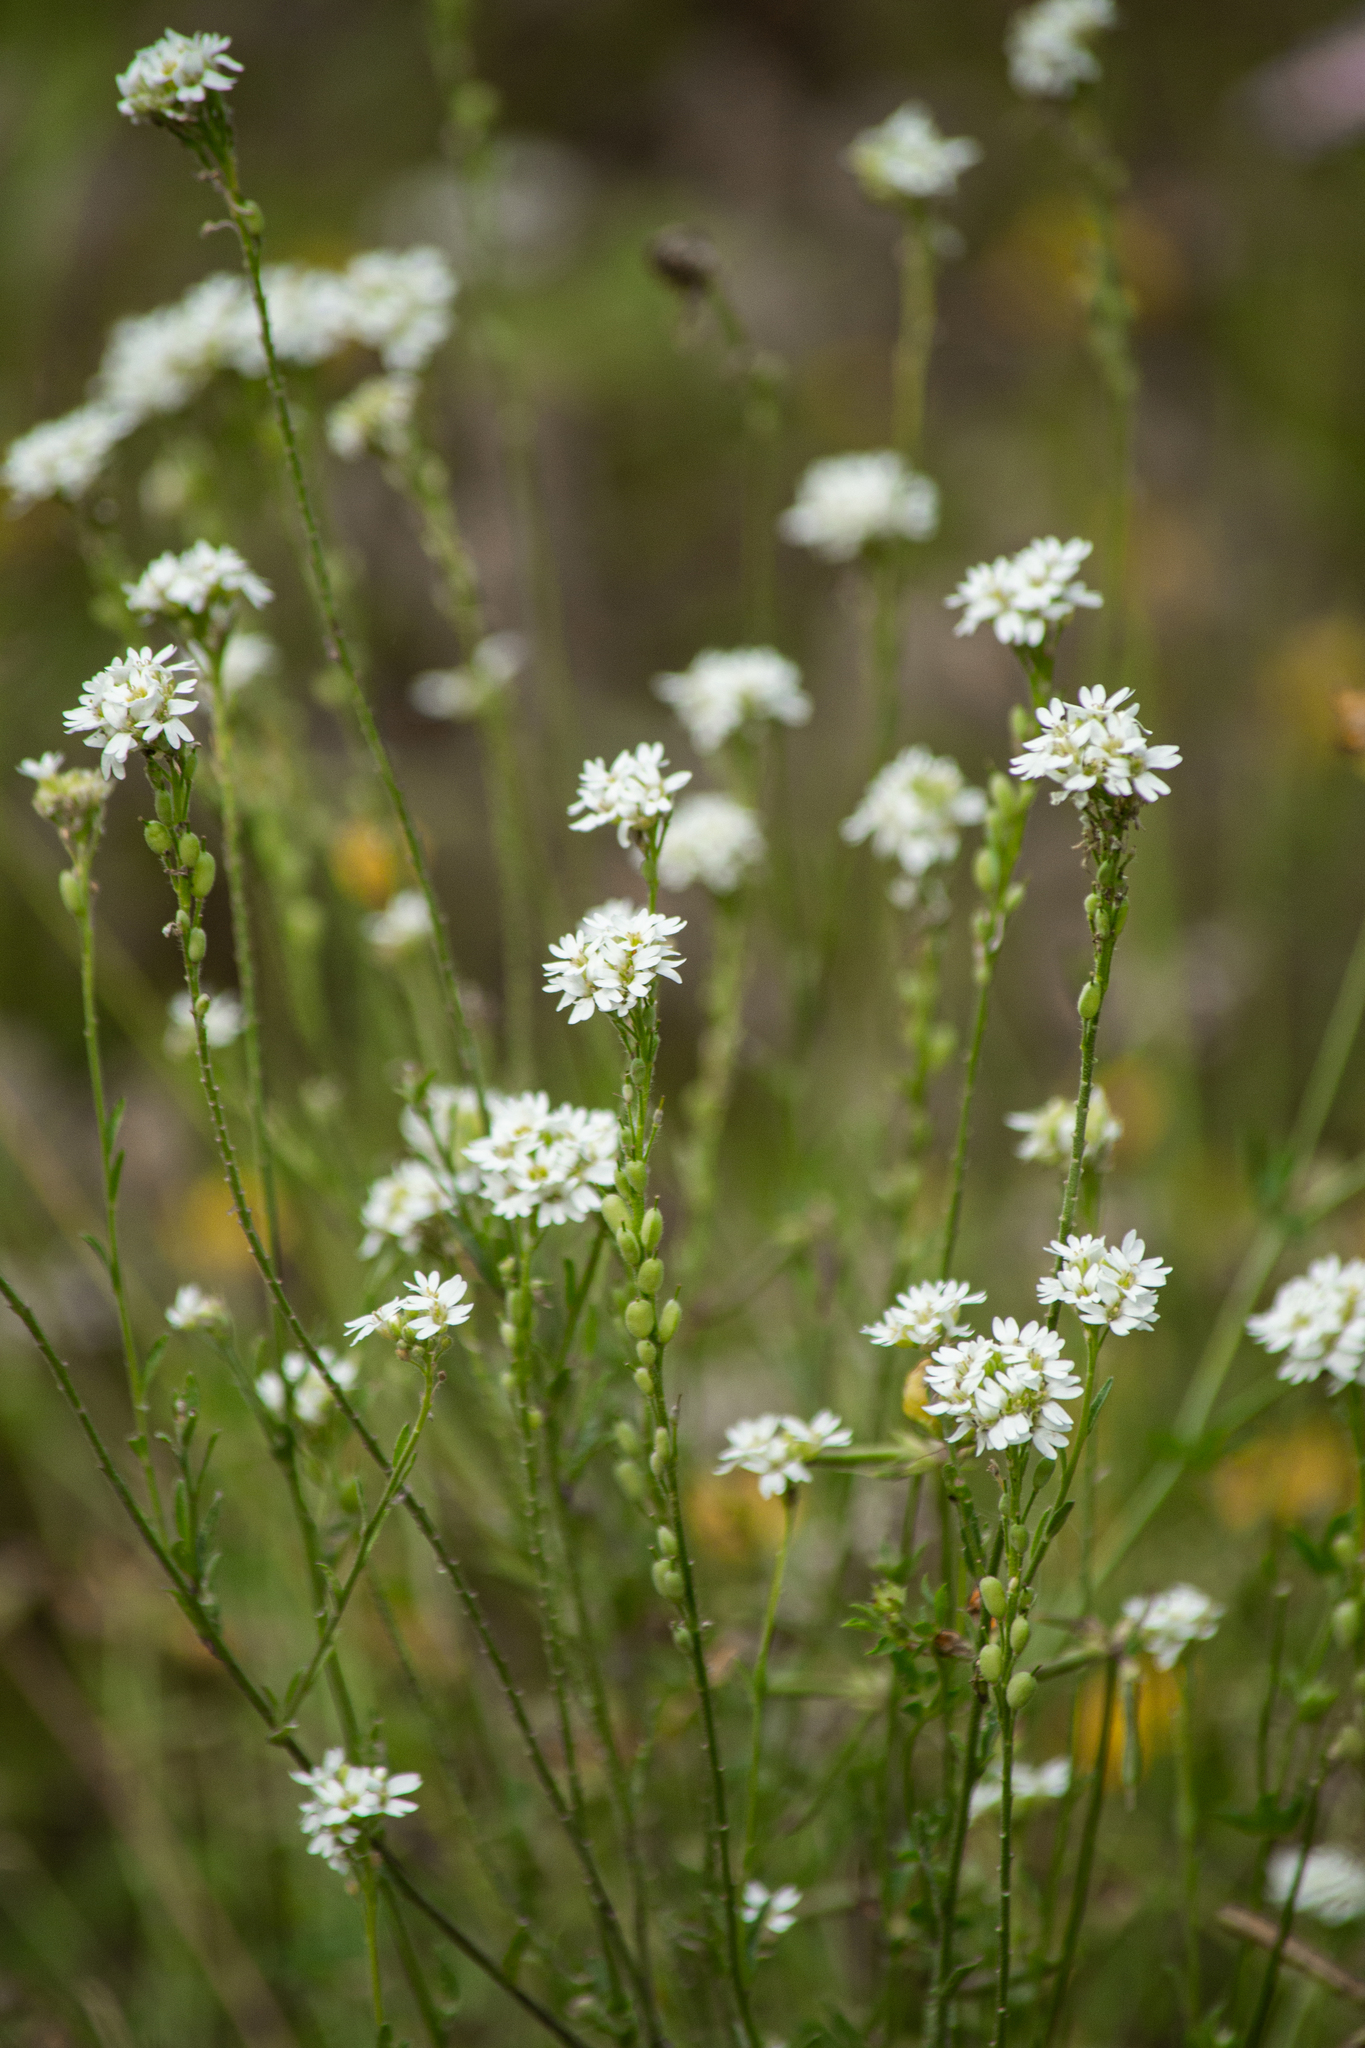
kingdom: Plantae
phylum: Tracheophyta
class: Magnoliopsida
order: Brassicales
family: Brassicaceae
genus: Berteroa
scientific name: Berteroa incana
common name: Hoary alison
